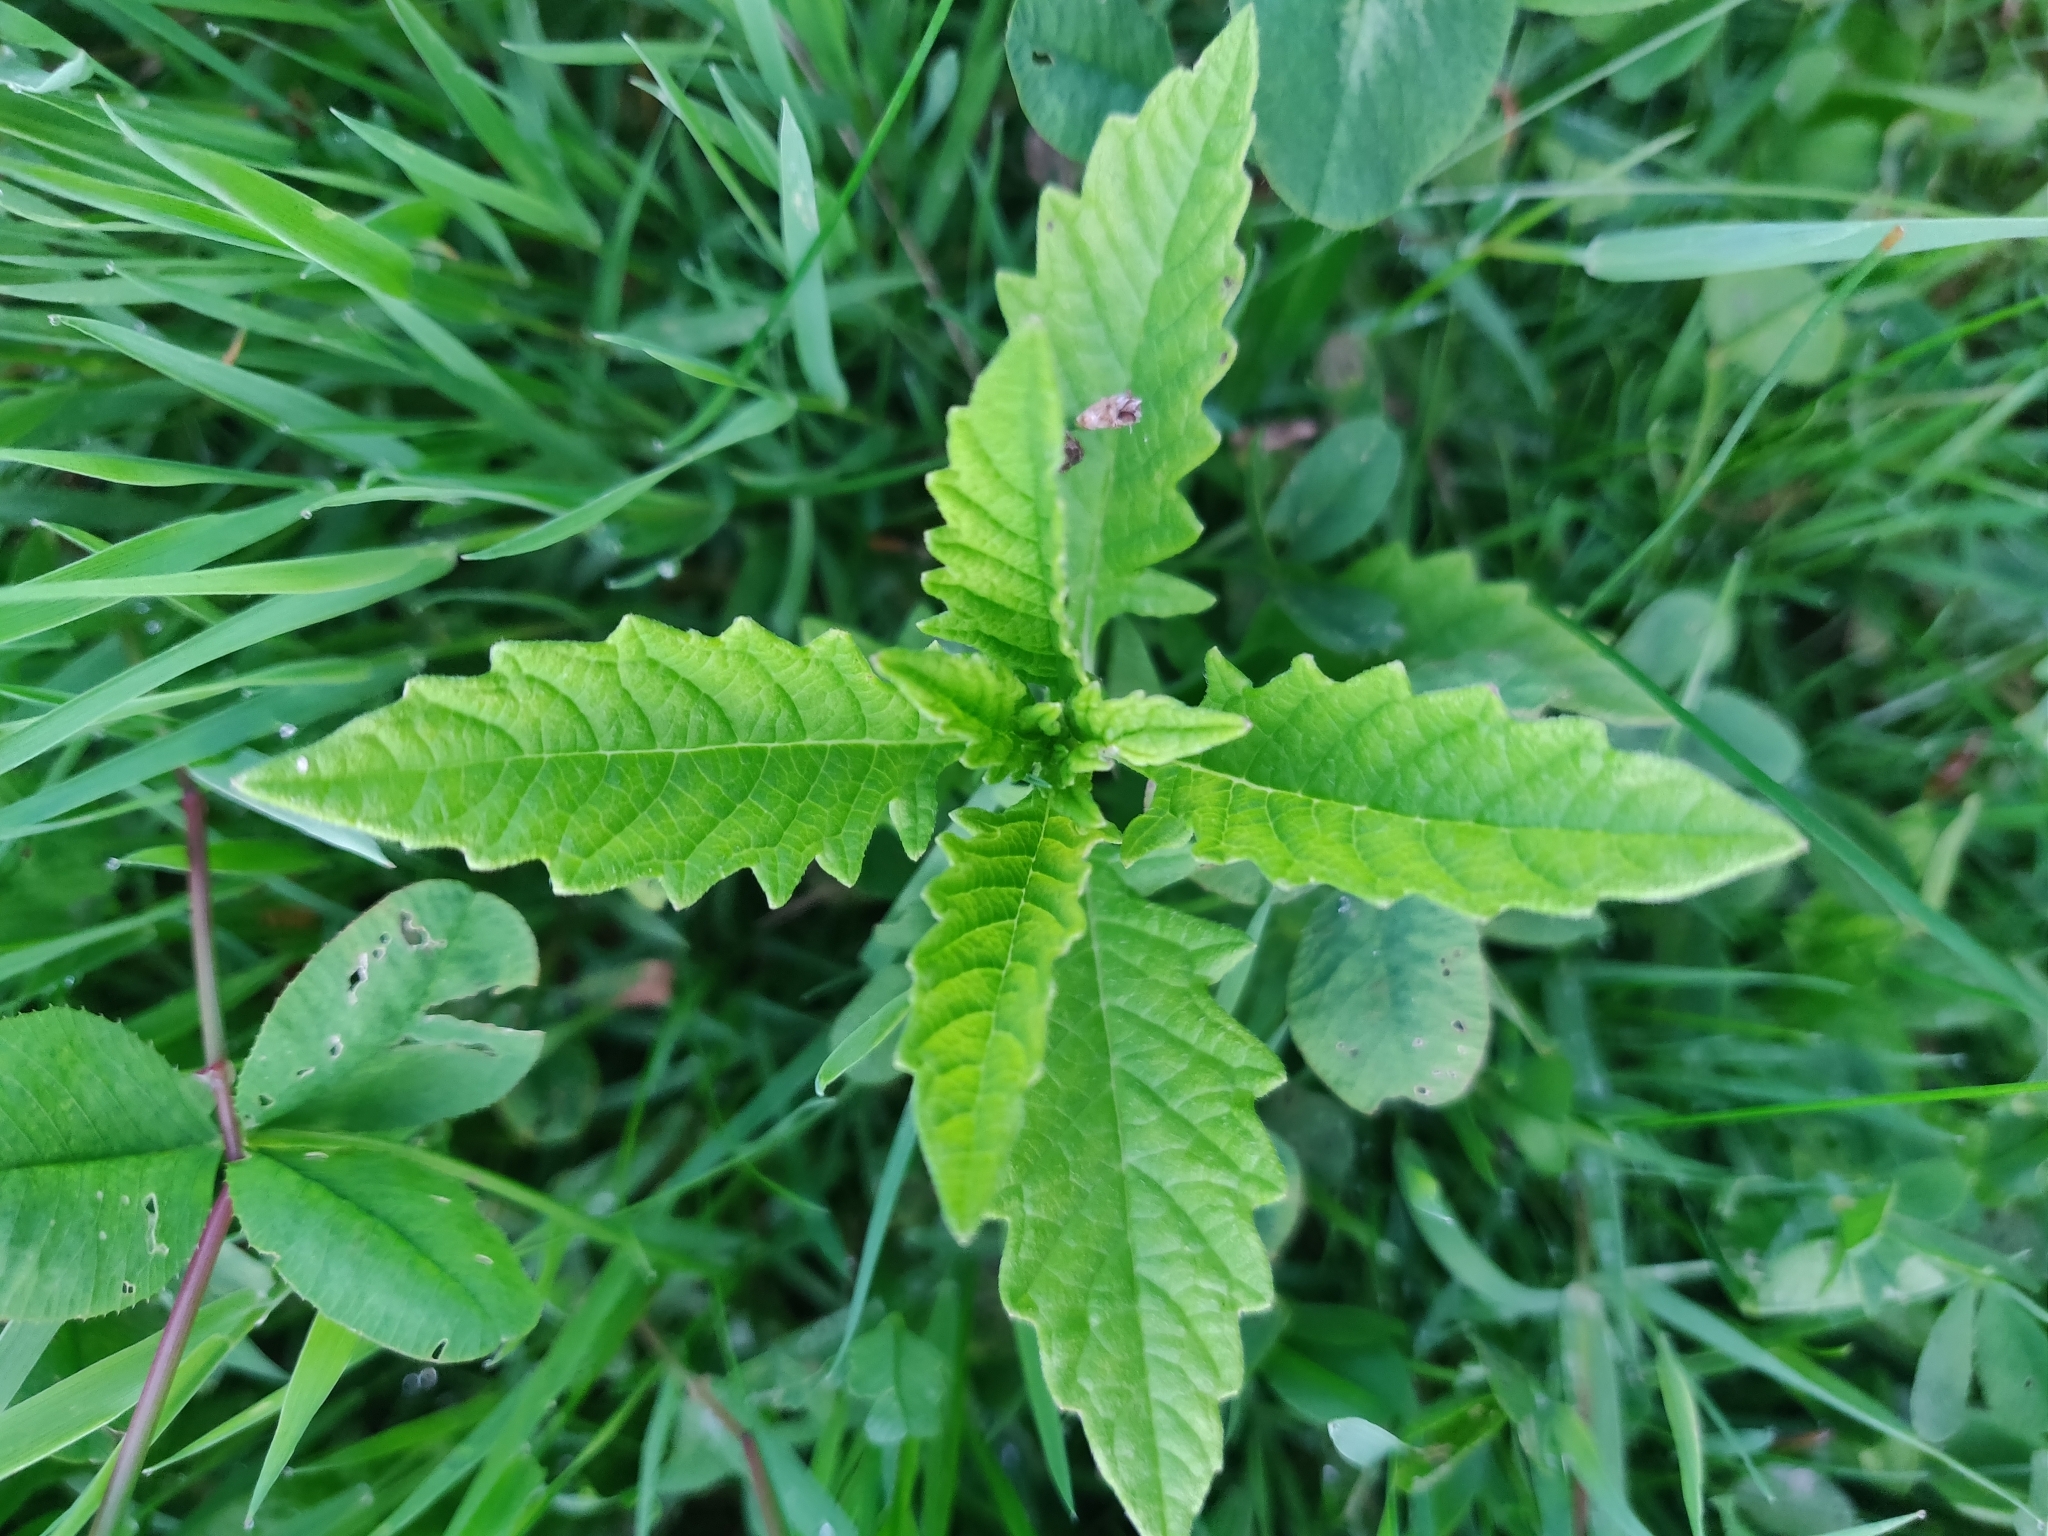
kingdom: Plantae
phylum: Tracheophyta
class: Magnoliopsida
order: Lamiales
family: Lamiaceae
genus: Lycopus
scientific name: Lycopus europaeus
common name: European bugleweed
